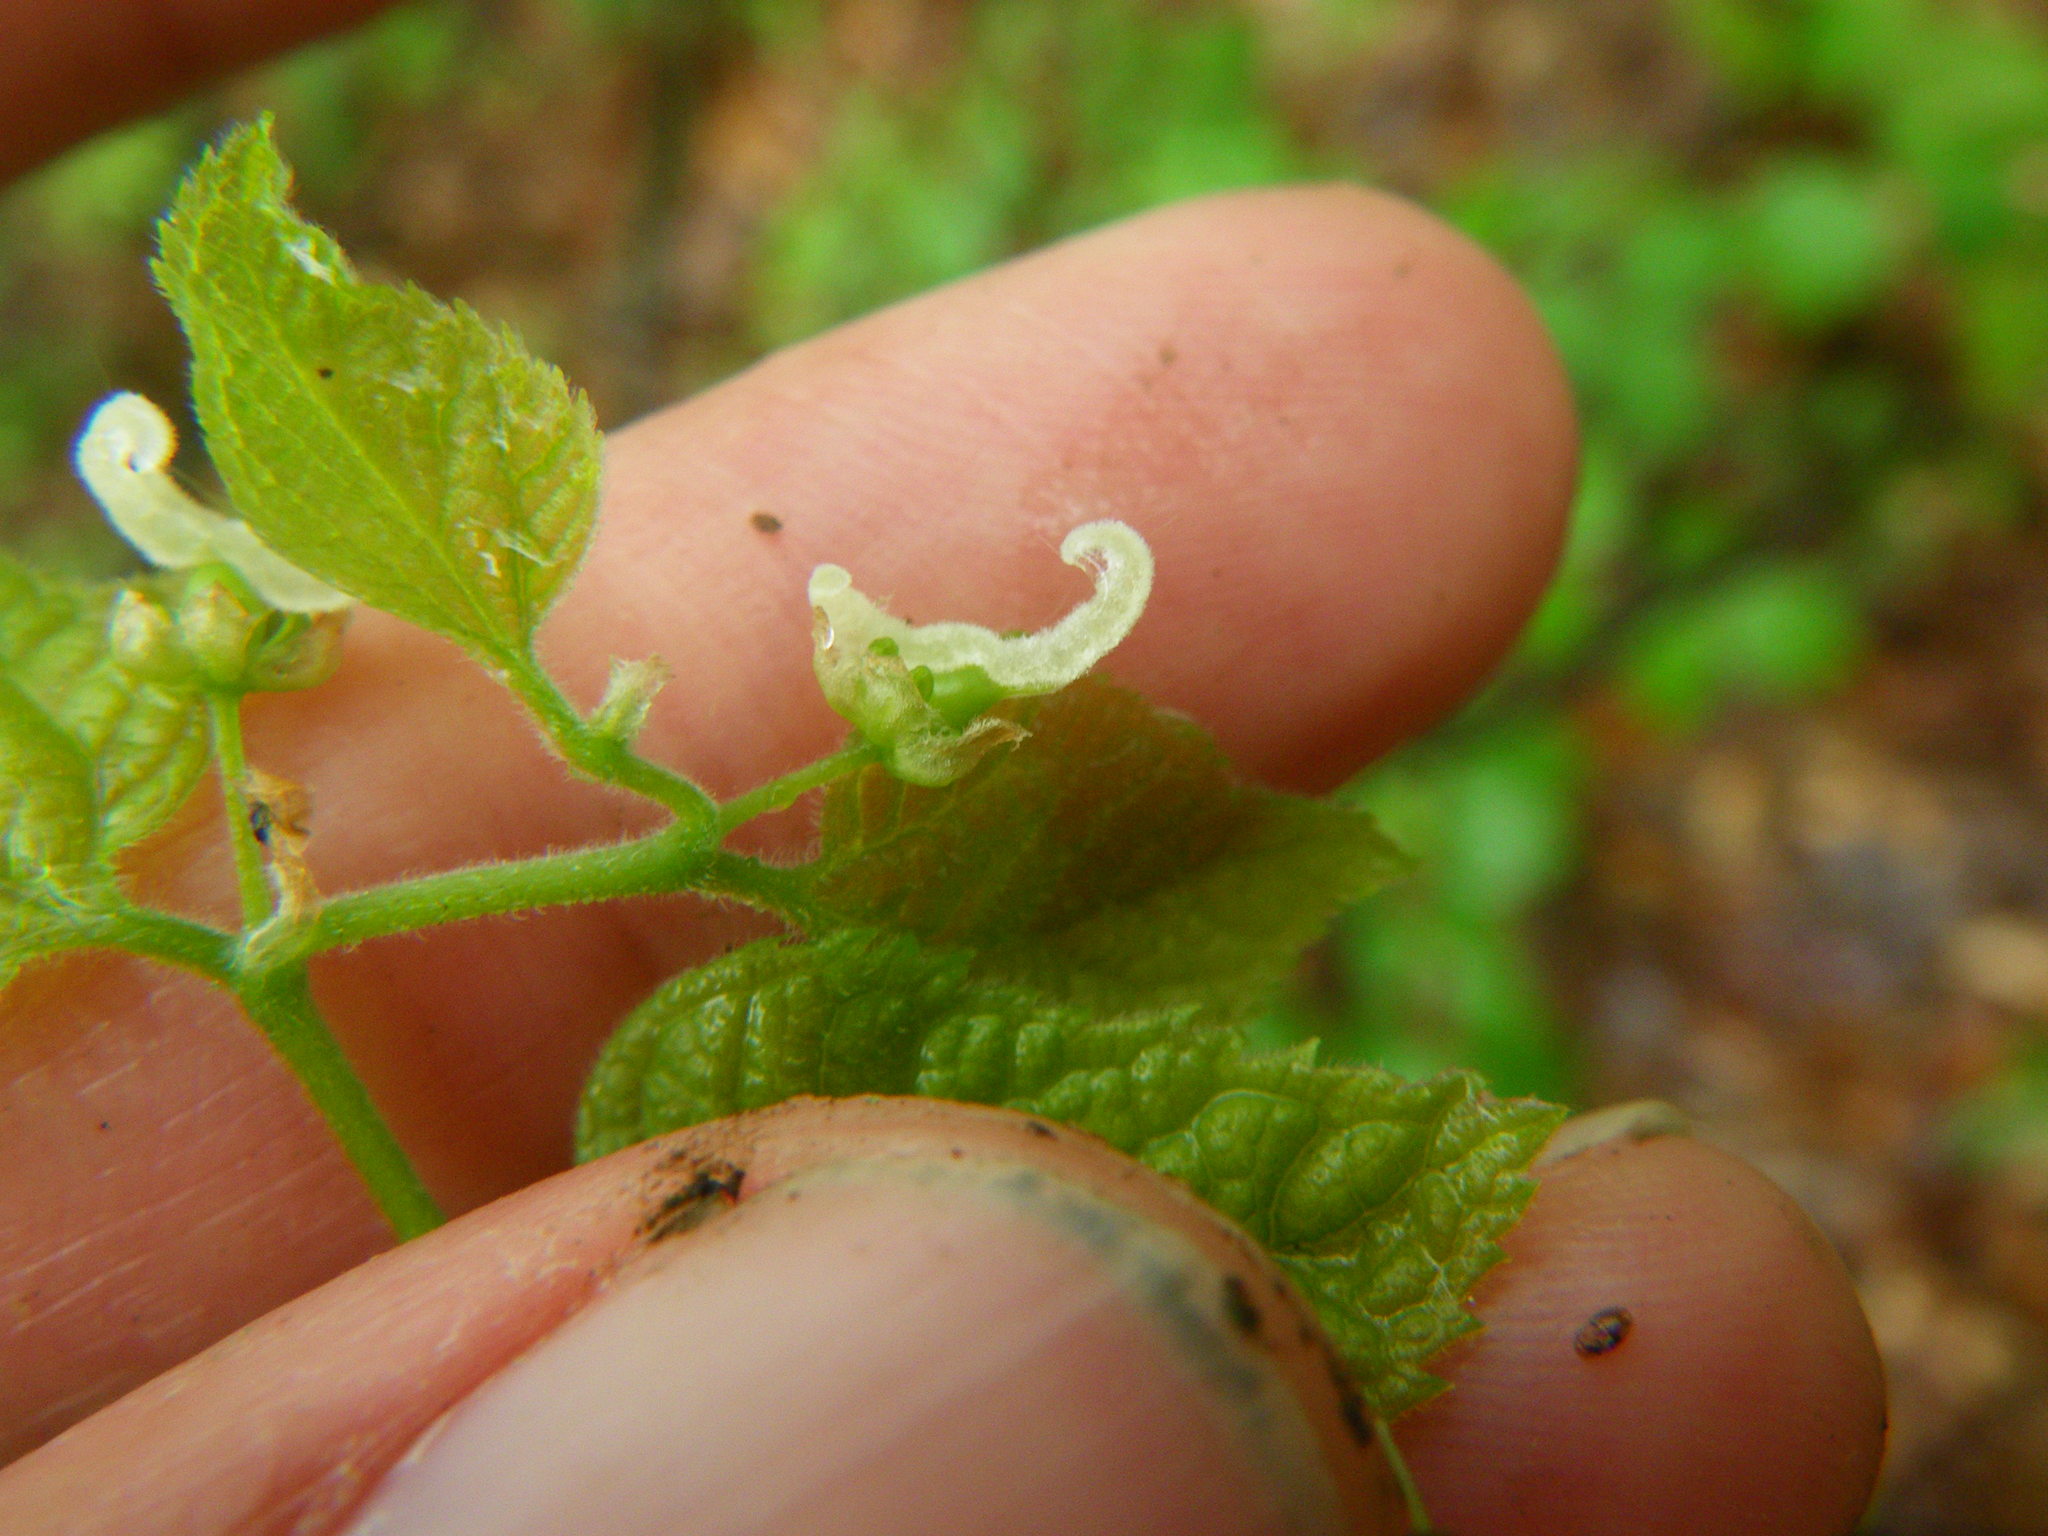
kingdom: Plantae
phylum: Tracheophyta
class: Magnoliopsida
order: Rosales
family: Cannabaceae
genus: Celtis
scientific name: Celtis tenuifolia
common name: Georgia hackberry
